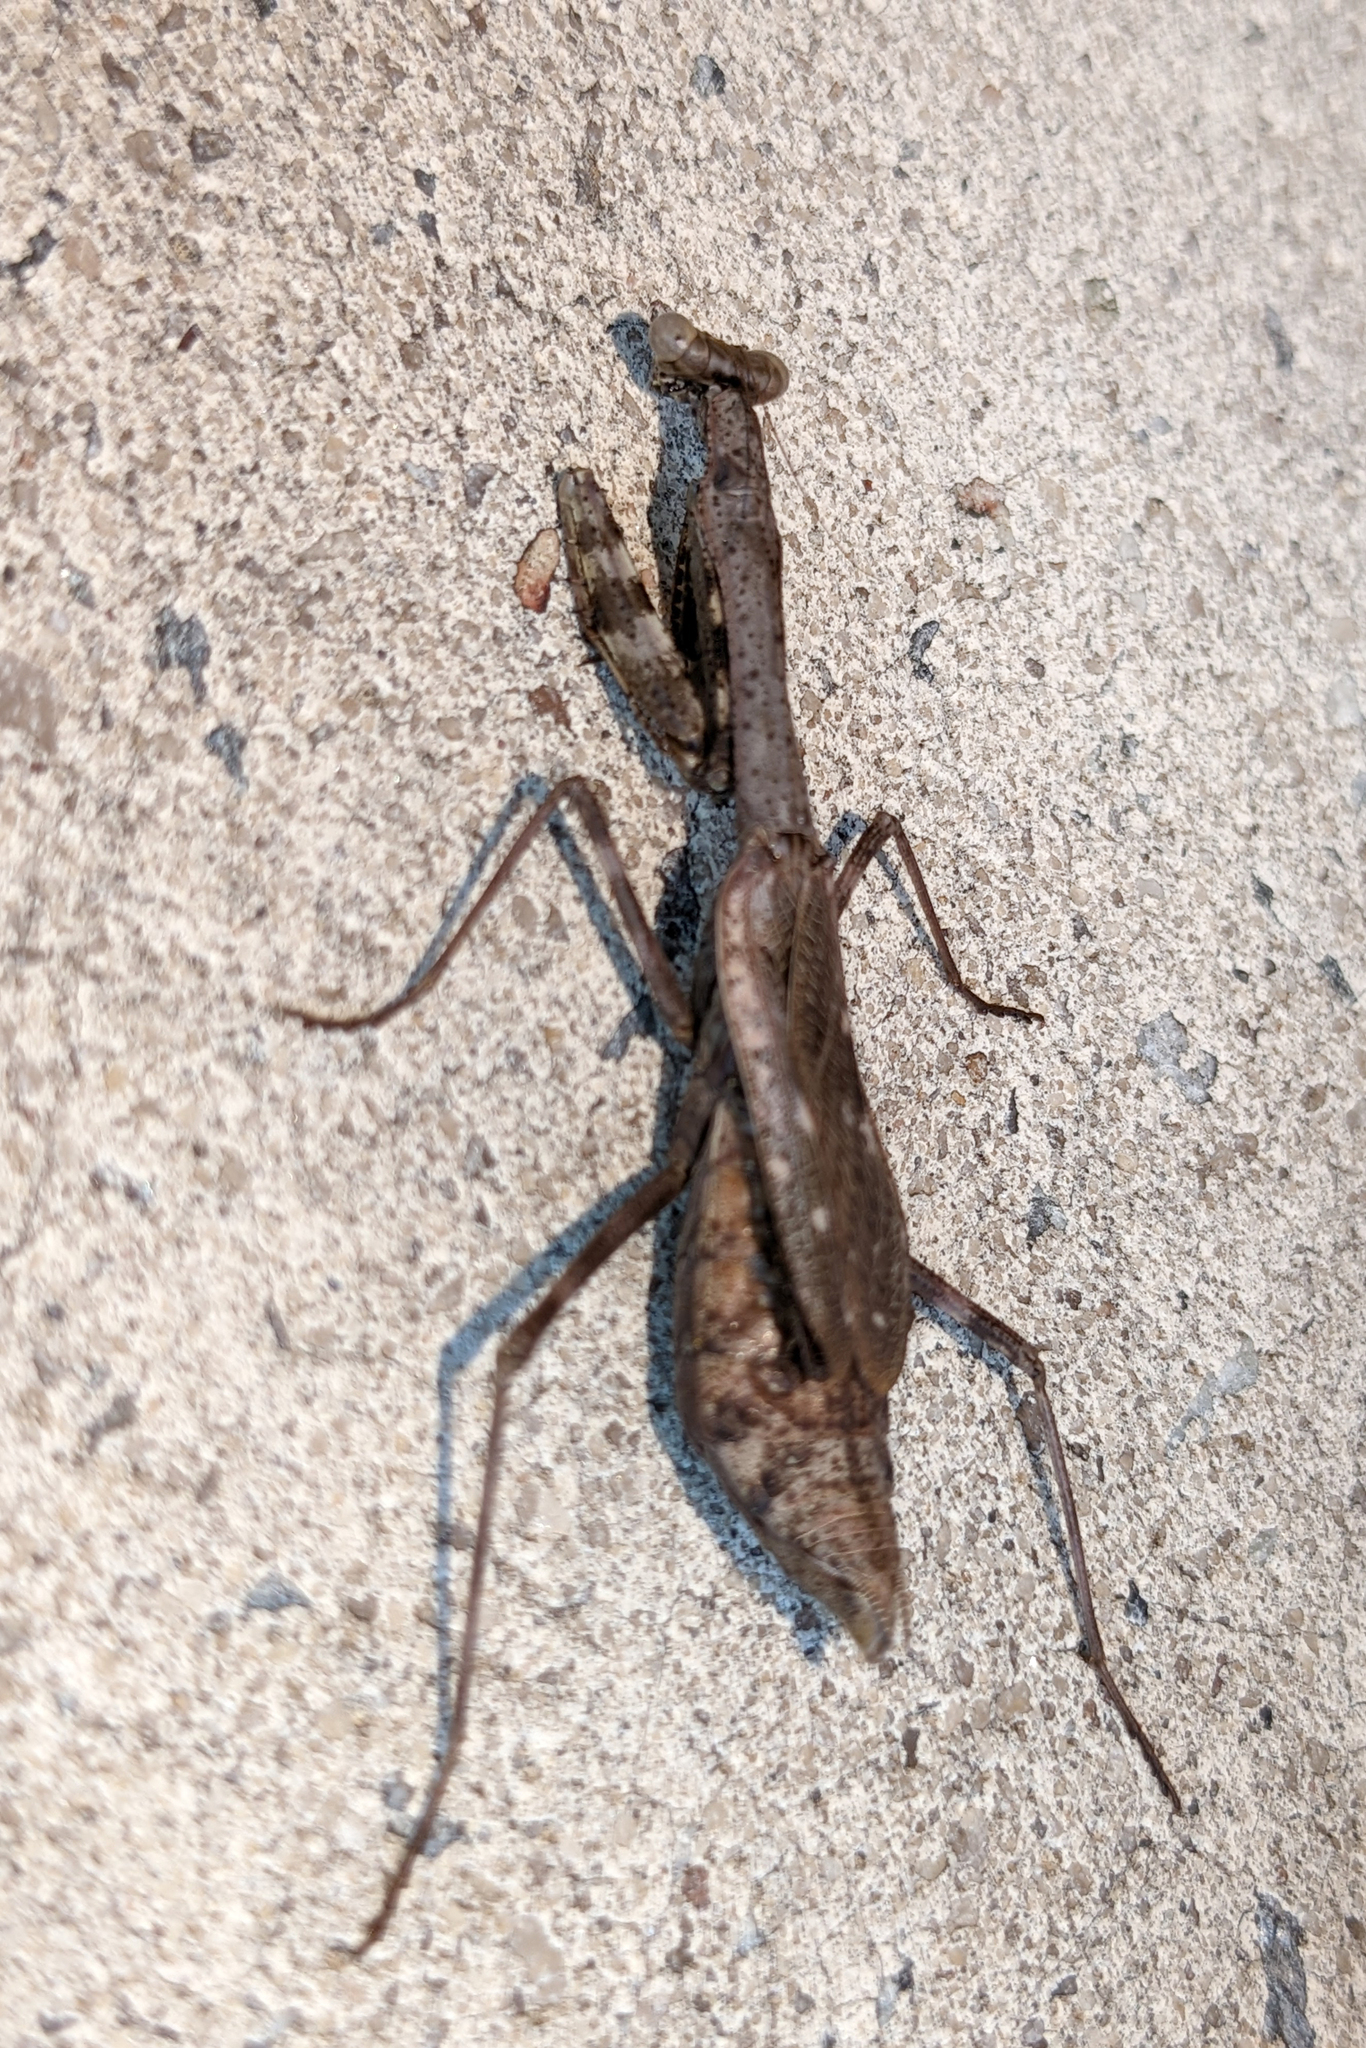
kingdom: Animalia
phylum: Arthropoda
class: Insecta
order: Mantodea
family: Mantidae
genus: Stagmomantis
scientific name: Stagmomantis carolina
